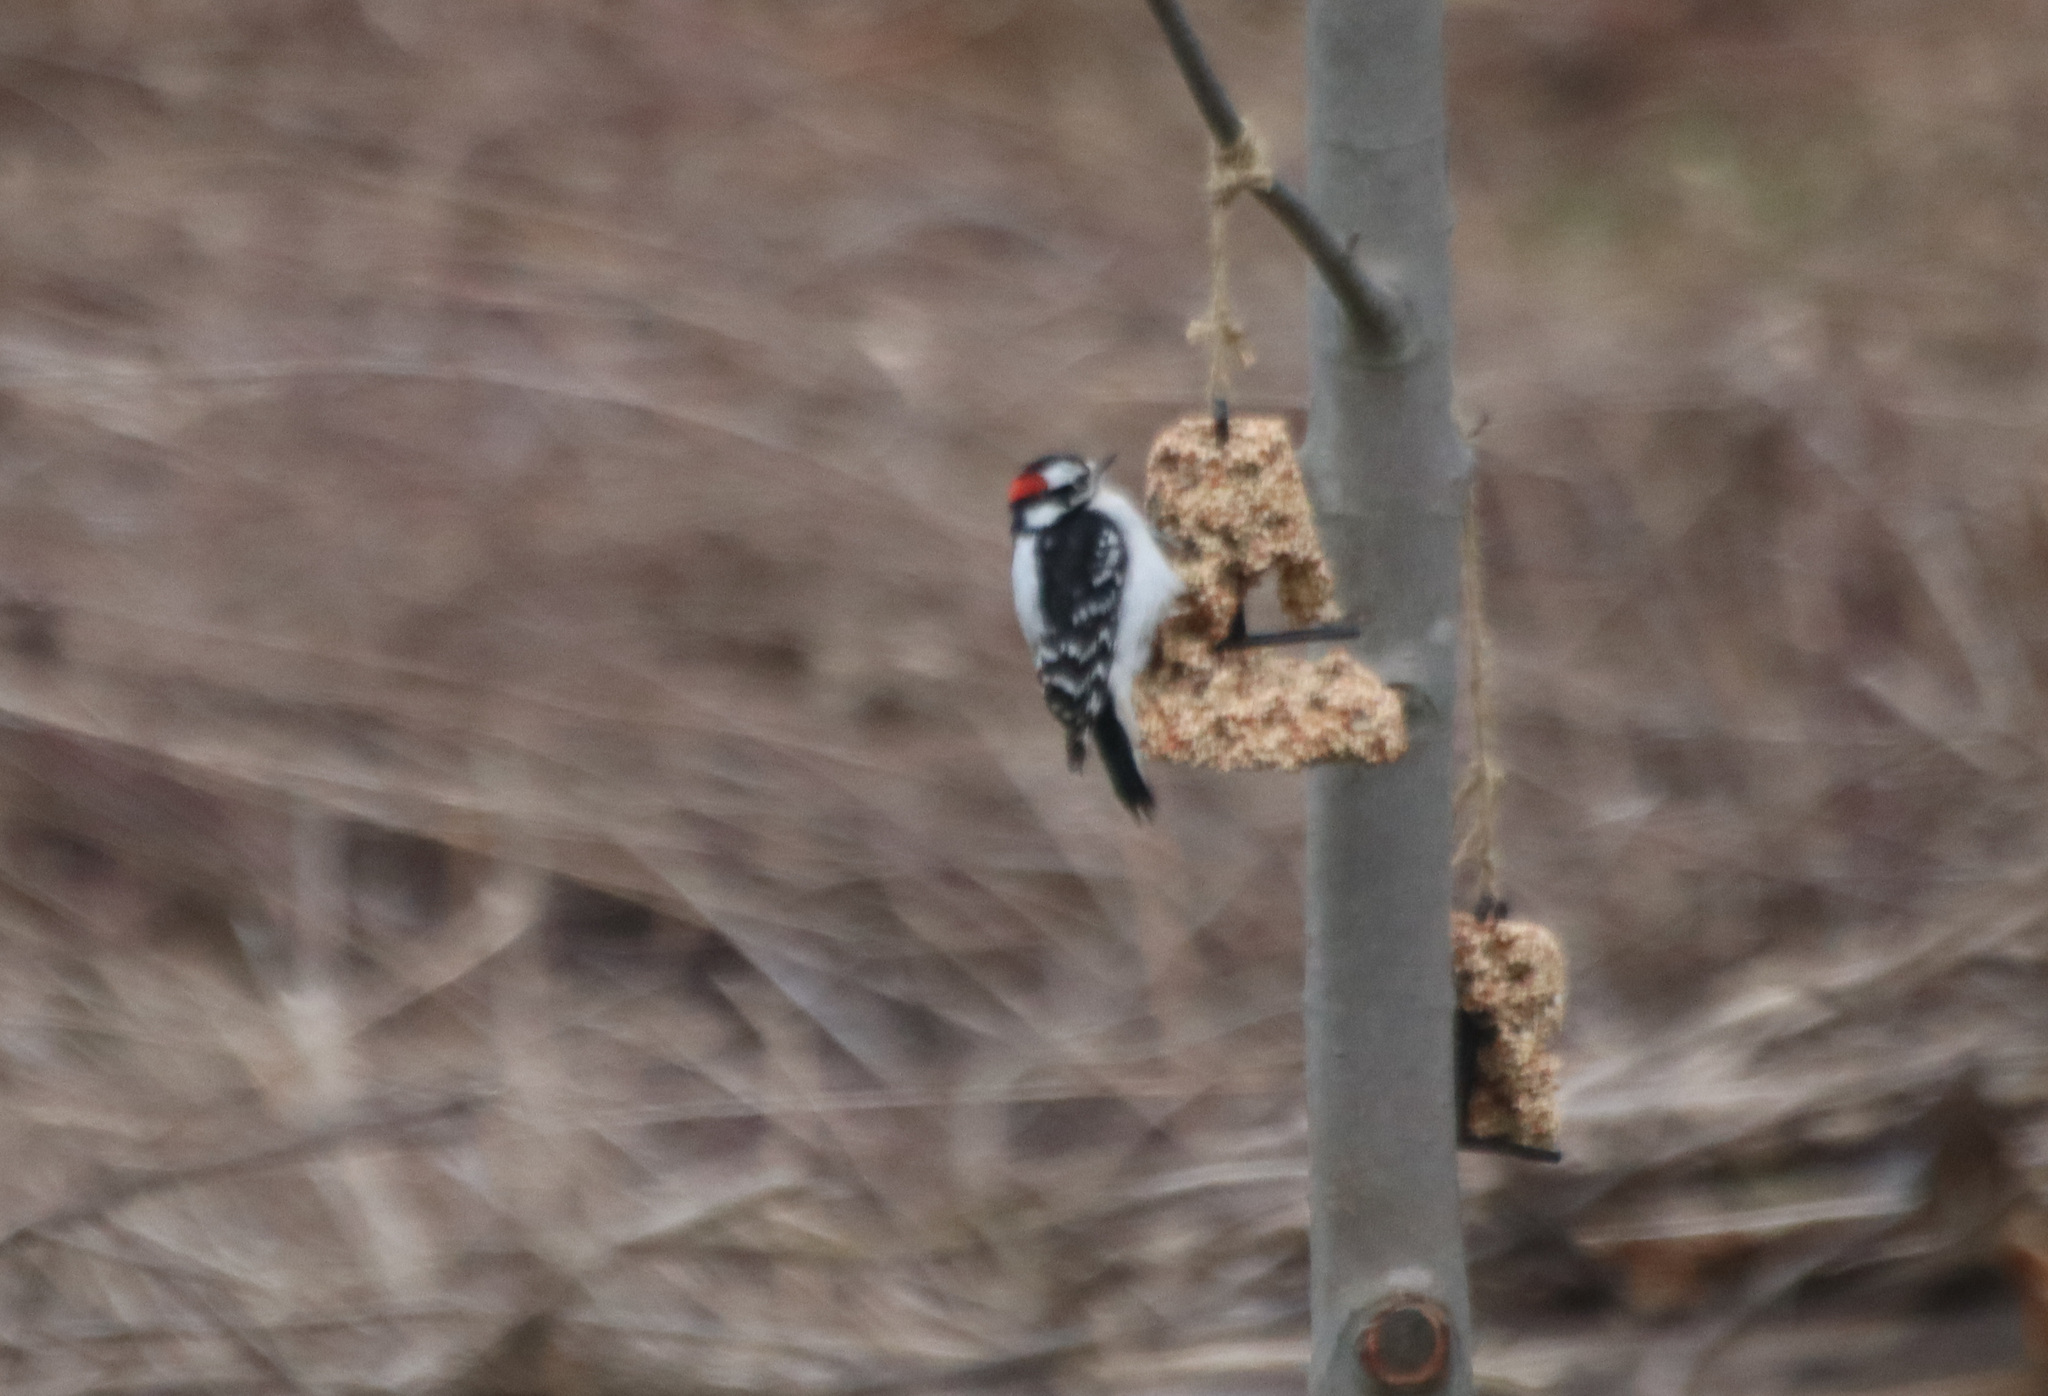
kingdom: Animalia
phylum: Chordata
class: Aves
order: Piciformes
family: Picidae
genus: Dryobates
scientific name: Dryobates pubescens
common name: Downy woodpecker
